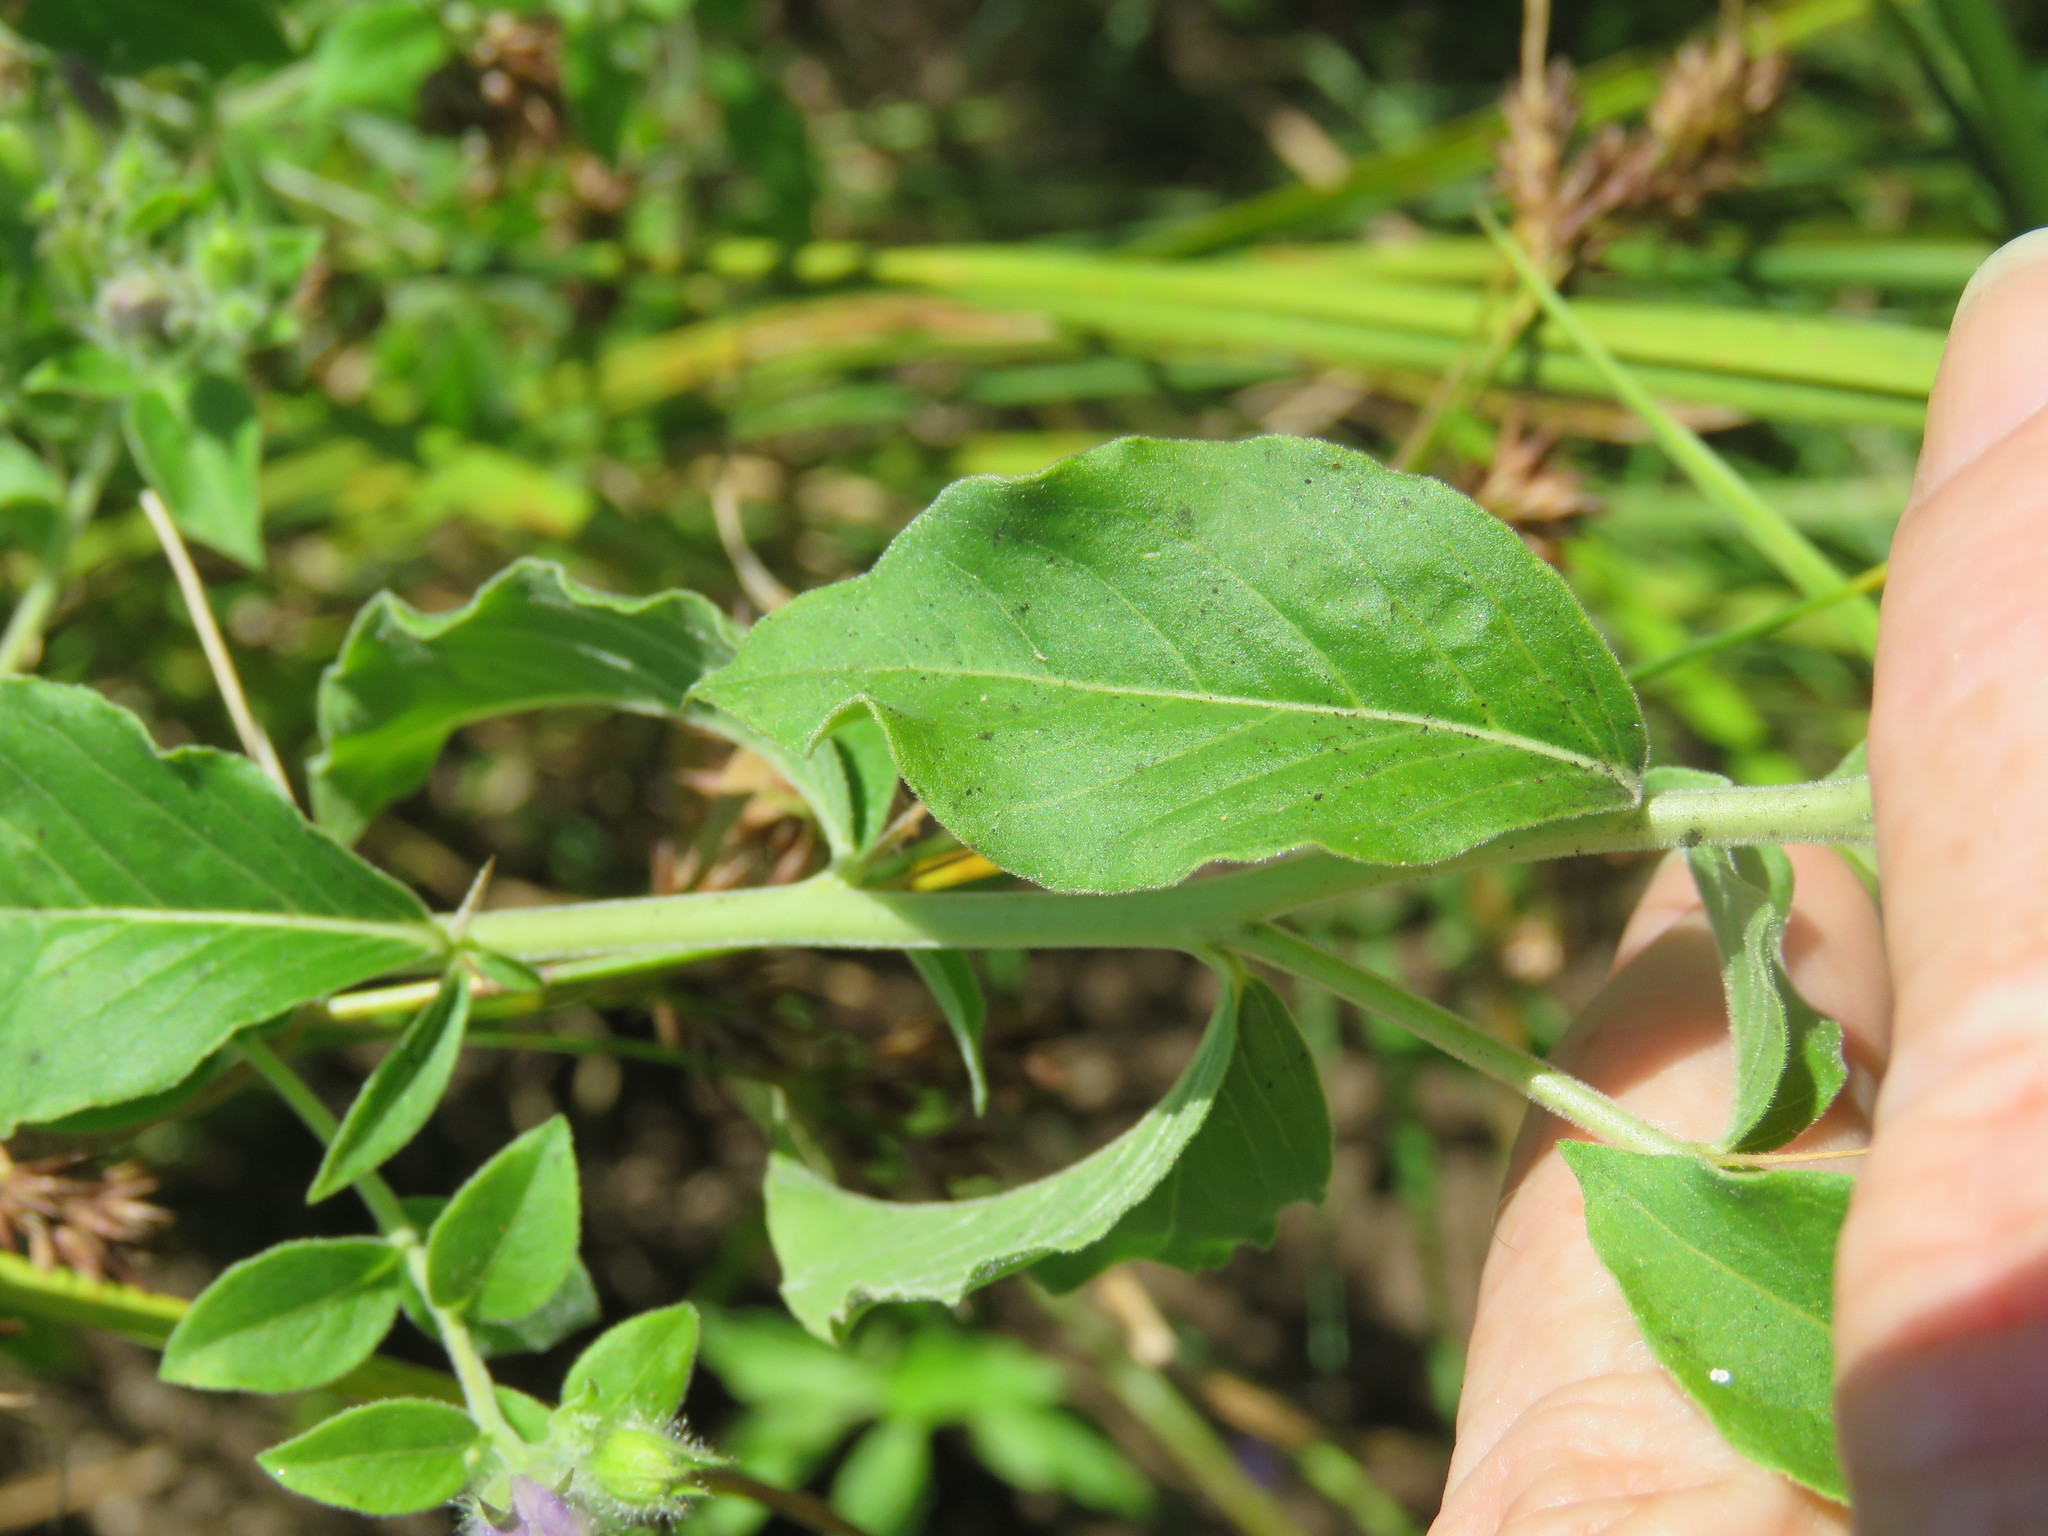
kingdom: Plantae
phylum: Tracheophyta
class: Magnoliopsida
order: Solanales
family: Hydroleaceae
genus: Hydrolea
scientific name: Hydrolea ovata
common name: Ovate false fiddleleaf
